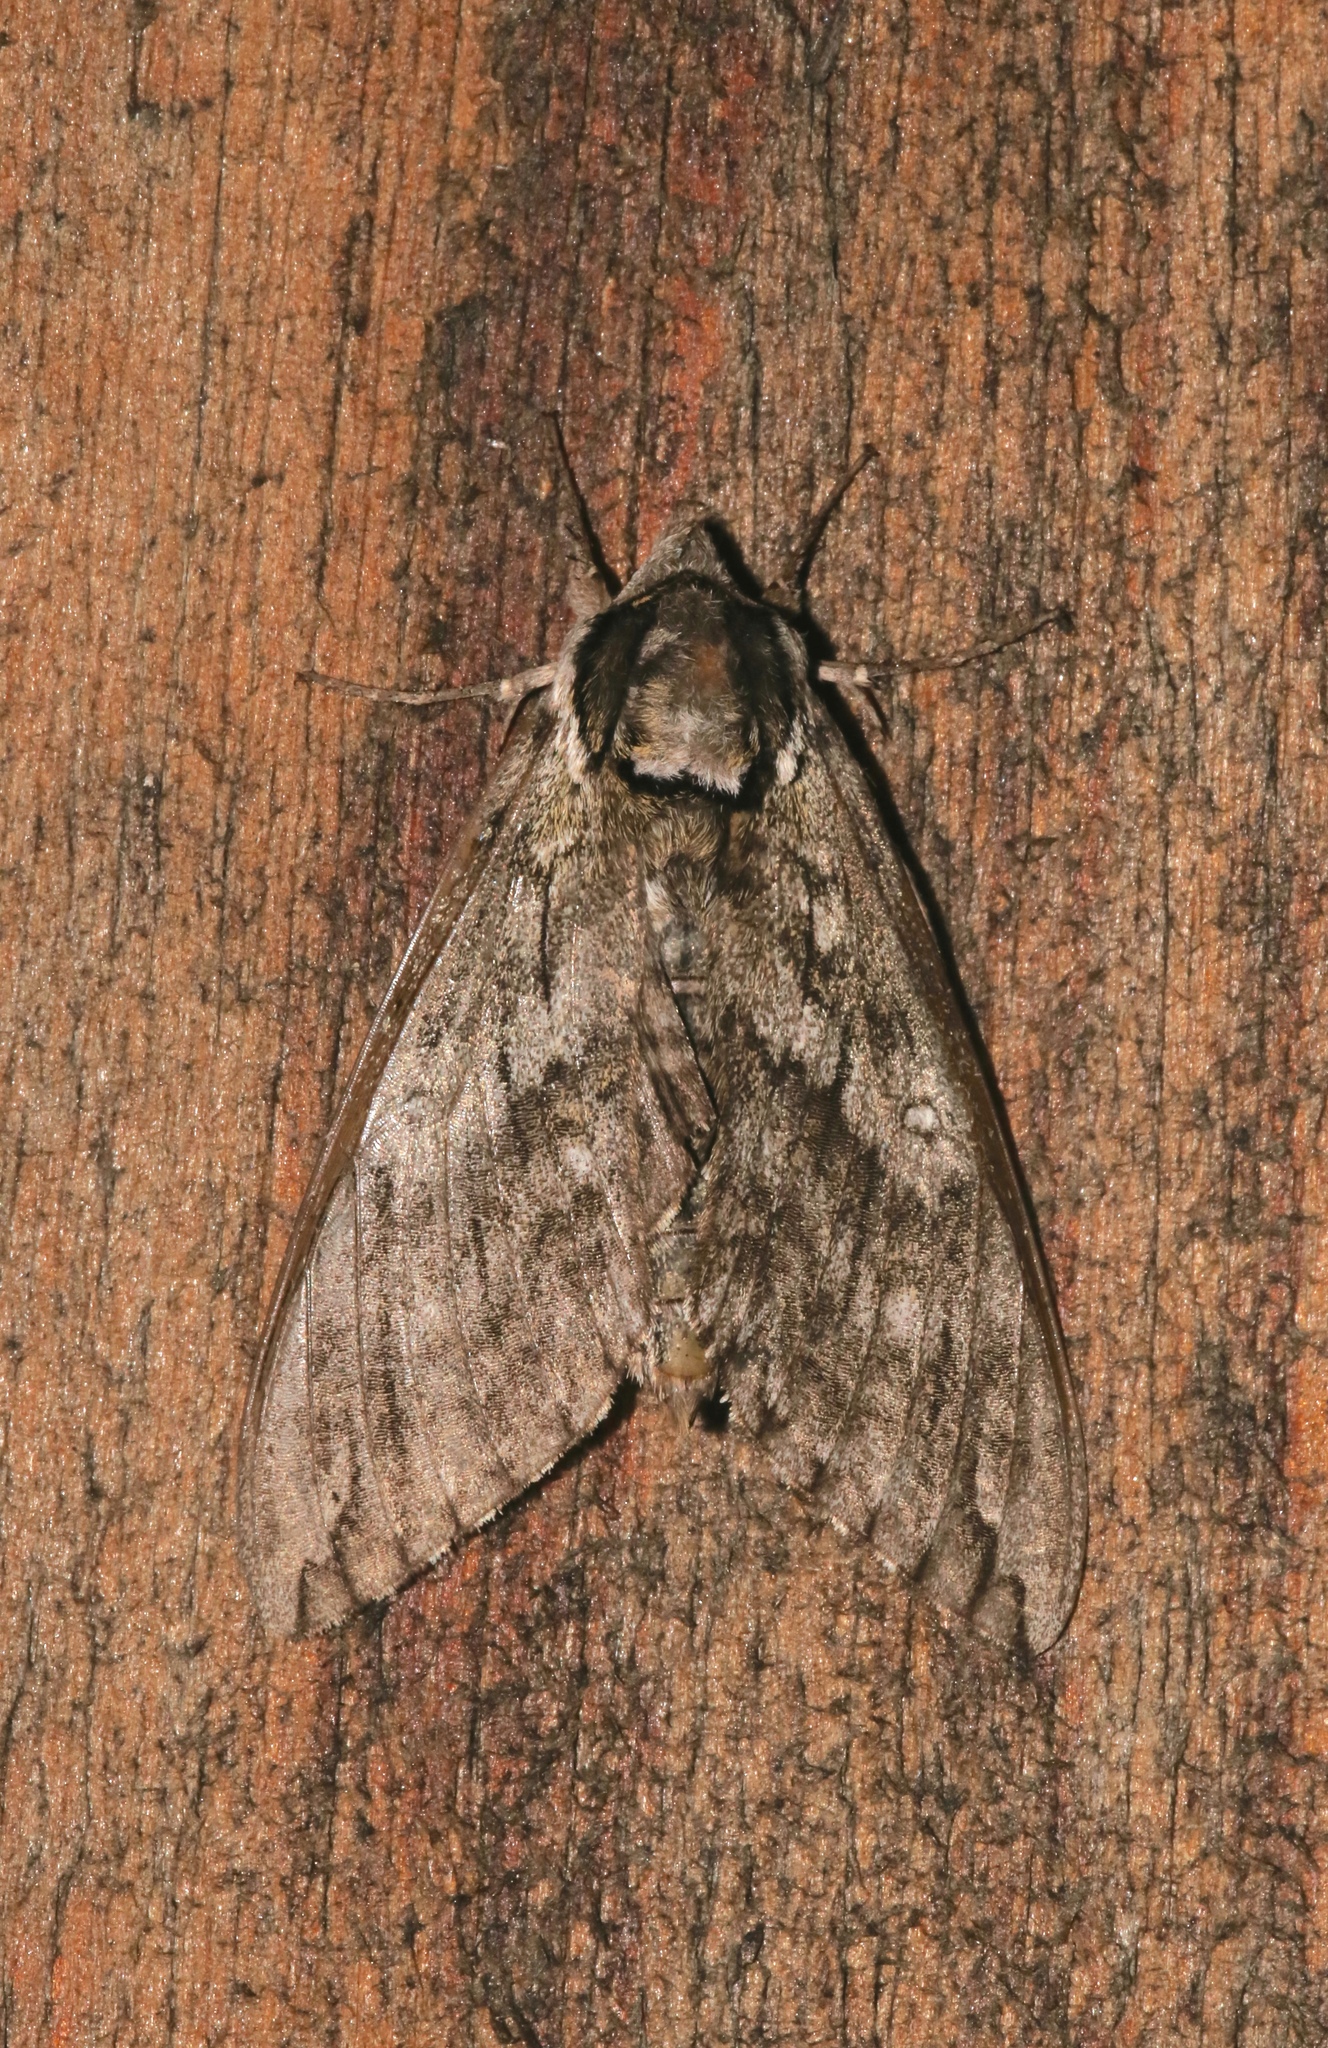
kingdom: Animalia
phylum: Arthropoda
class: Insecta
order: Lepidoptera
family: Sphingidae
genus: Ceratomia
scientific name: Ceratomia undulosa
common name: Waved sphinx
